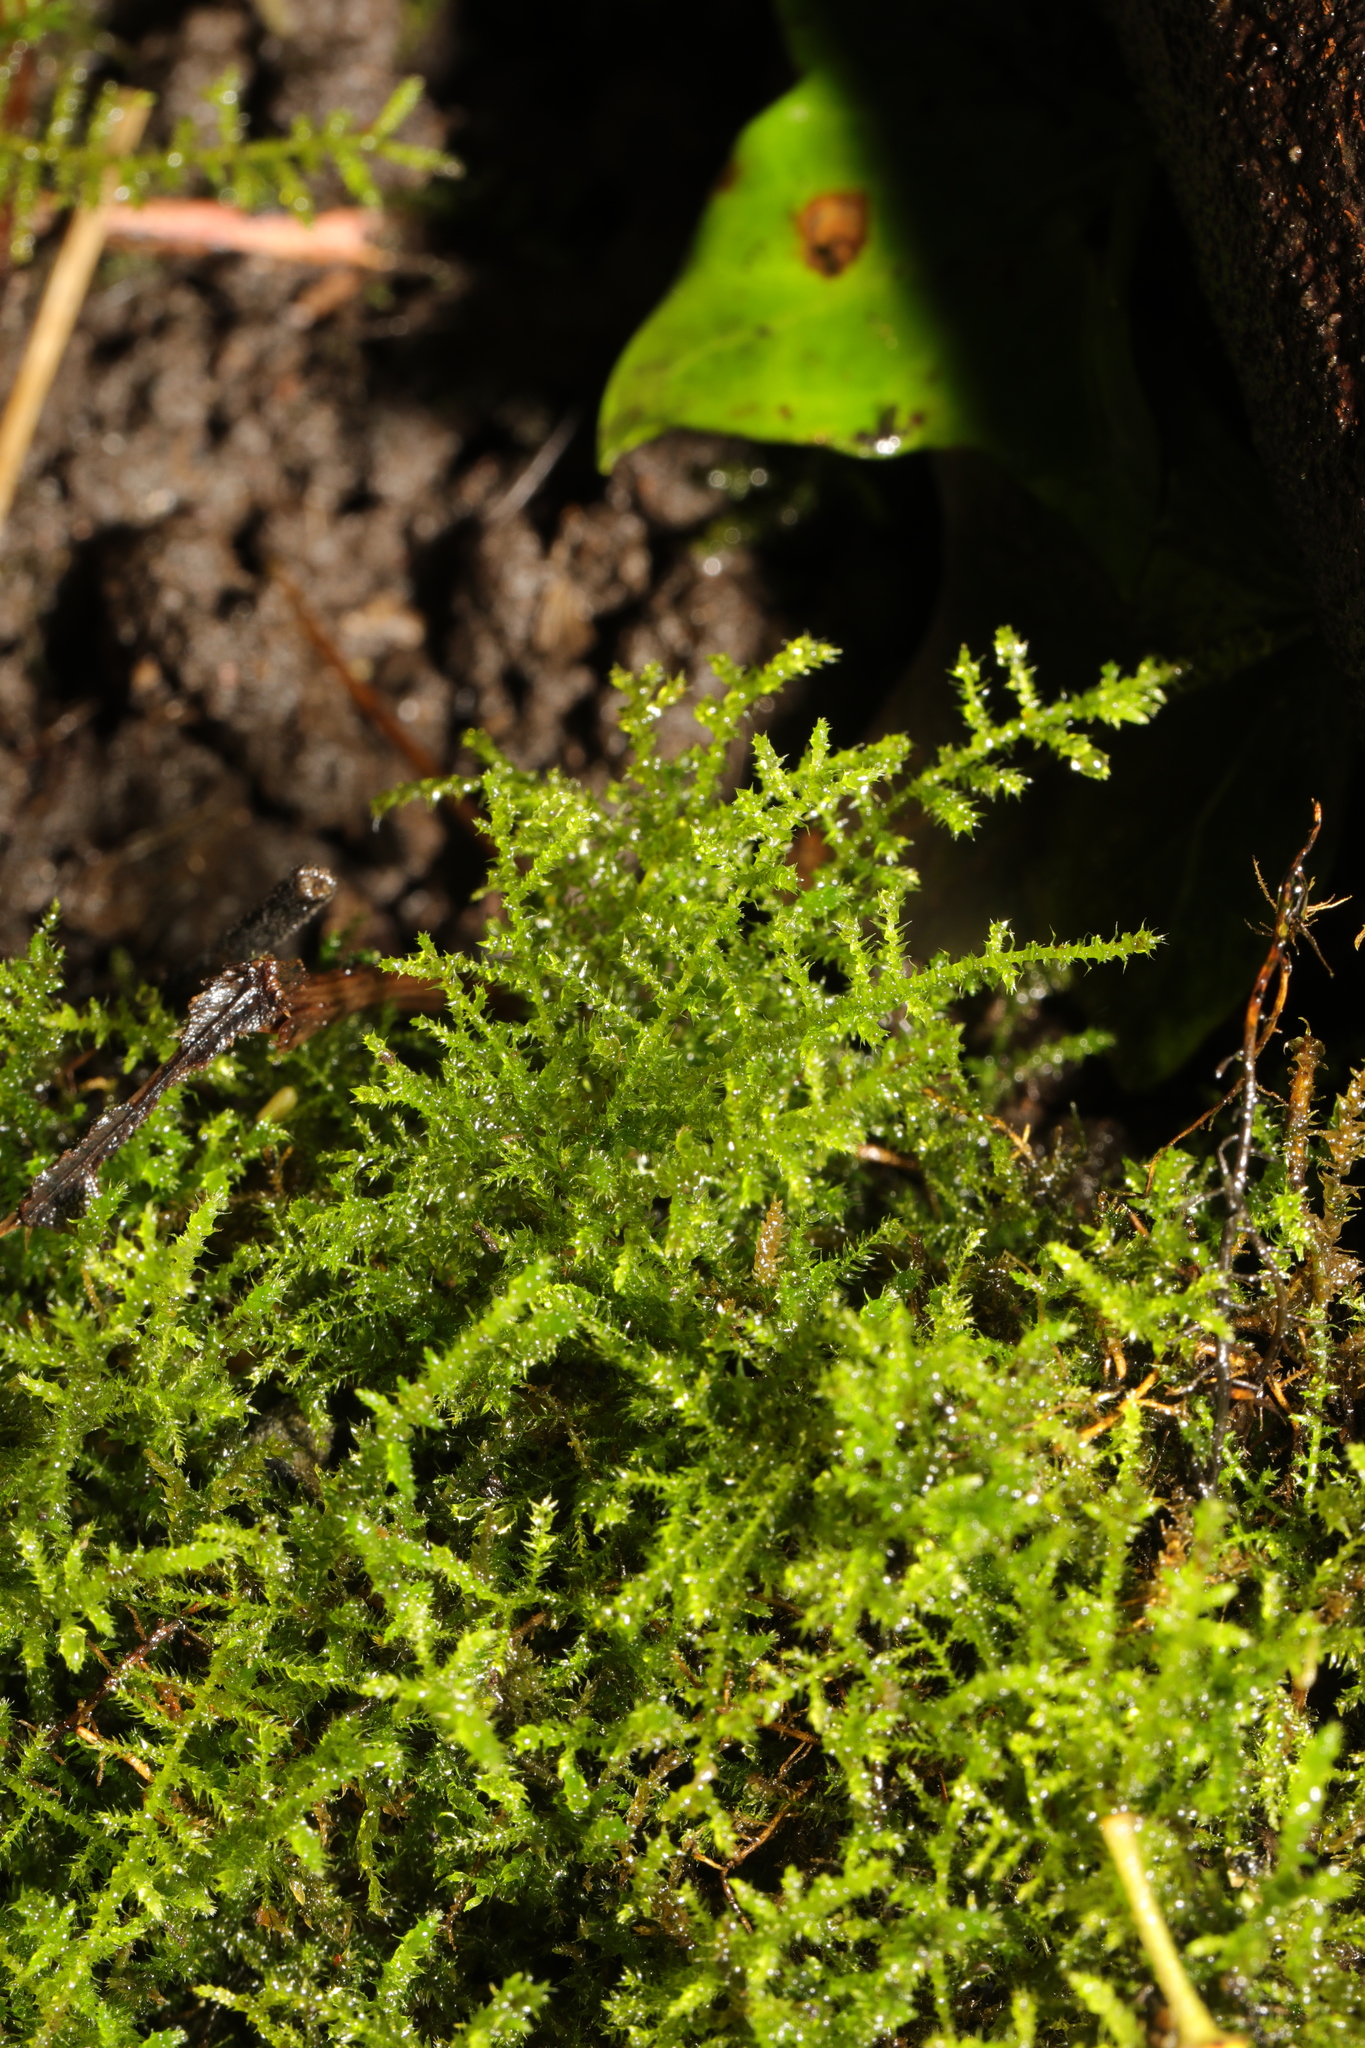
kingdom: Plantae
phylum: Bryophyta
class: Bryopsida
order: Hypnales
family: Brachytheciaceae
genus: Kindbergia
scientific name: Kindbergia praelonga
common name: Slender beaked moss
